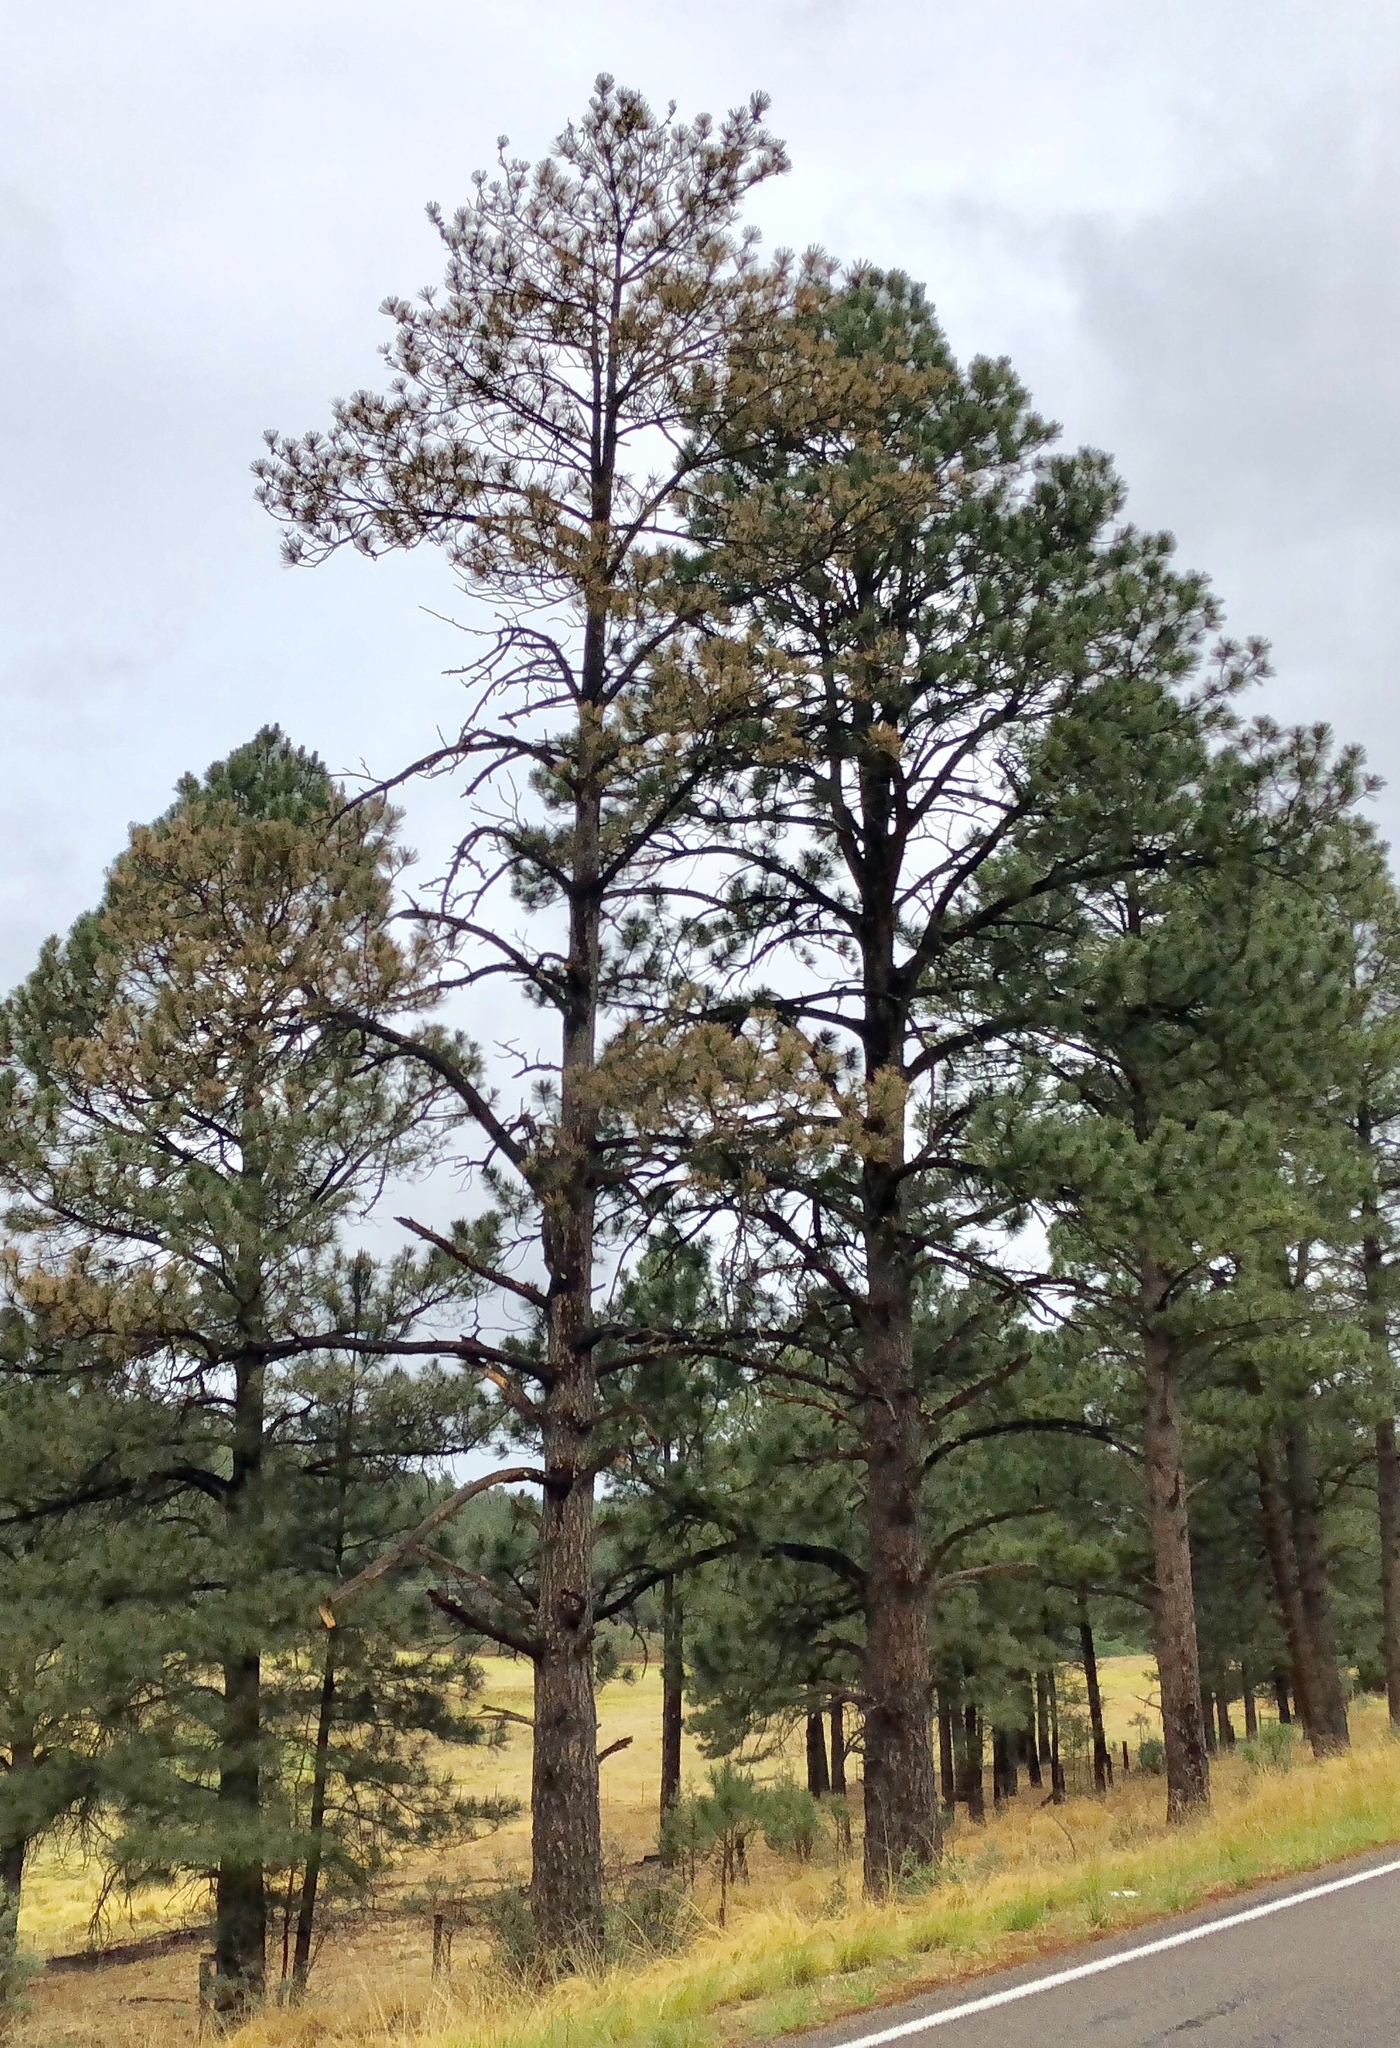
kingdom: Plantae
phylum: Tracheophyta
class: Pinopsida
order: Pinales
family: Pinaceae
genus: Pinus
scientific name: Pinus ponderosa
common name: Western yellow-pine
